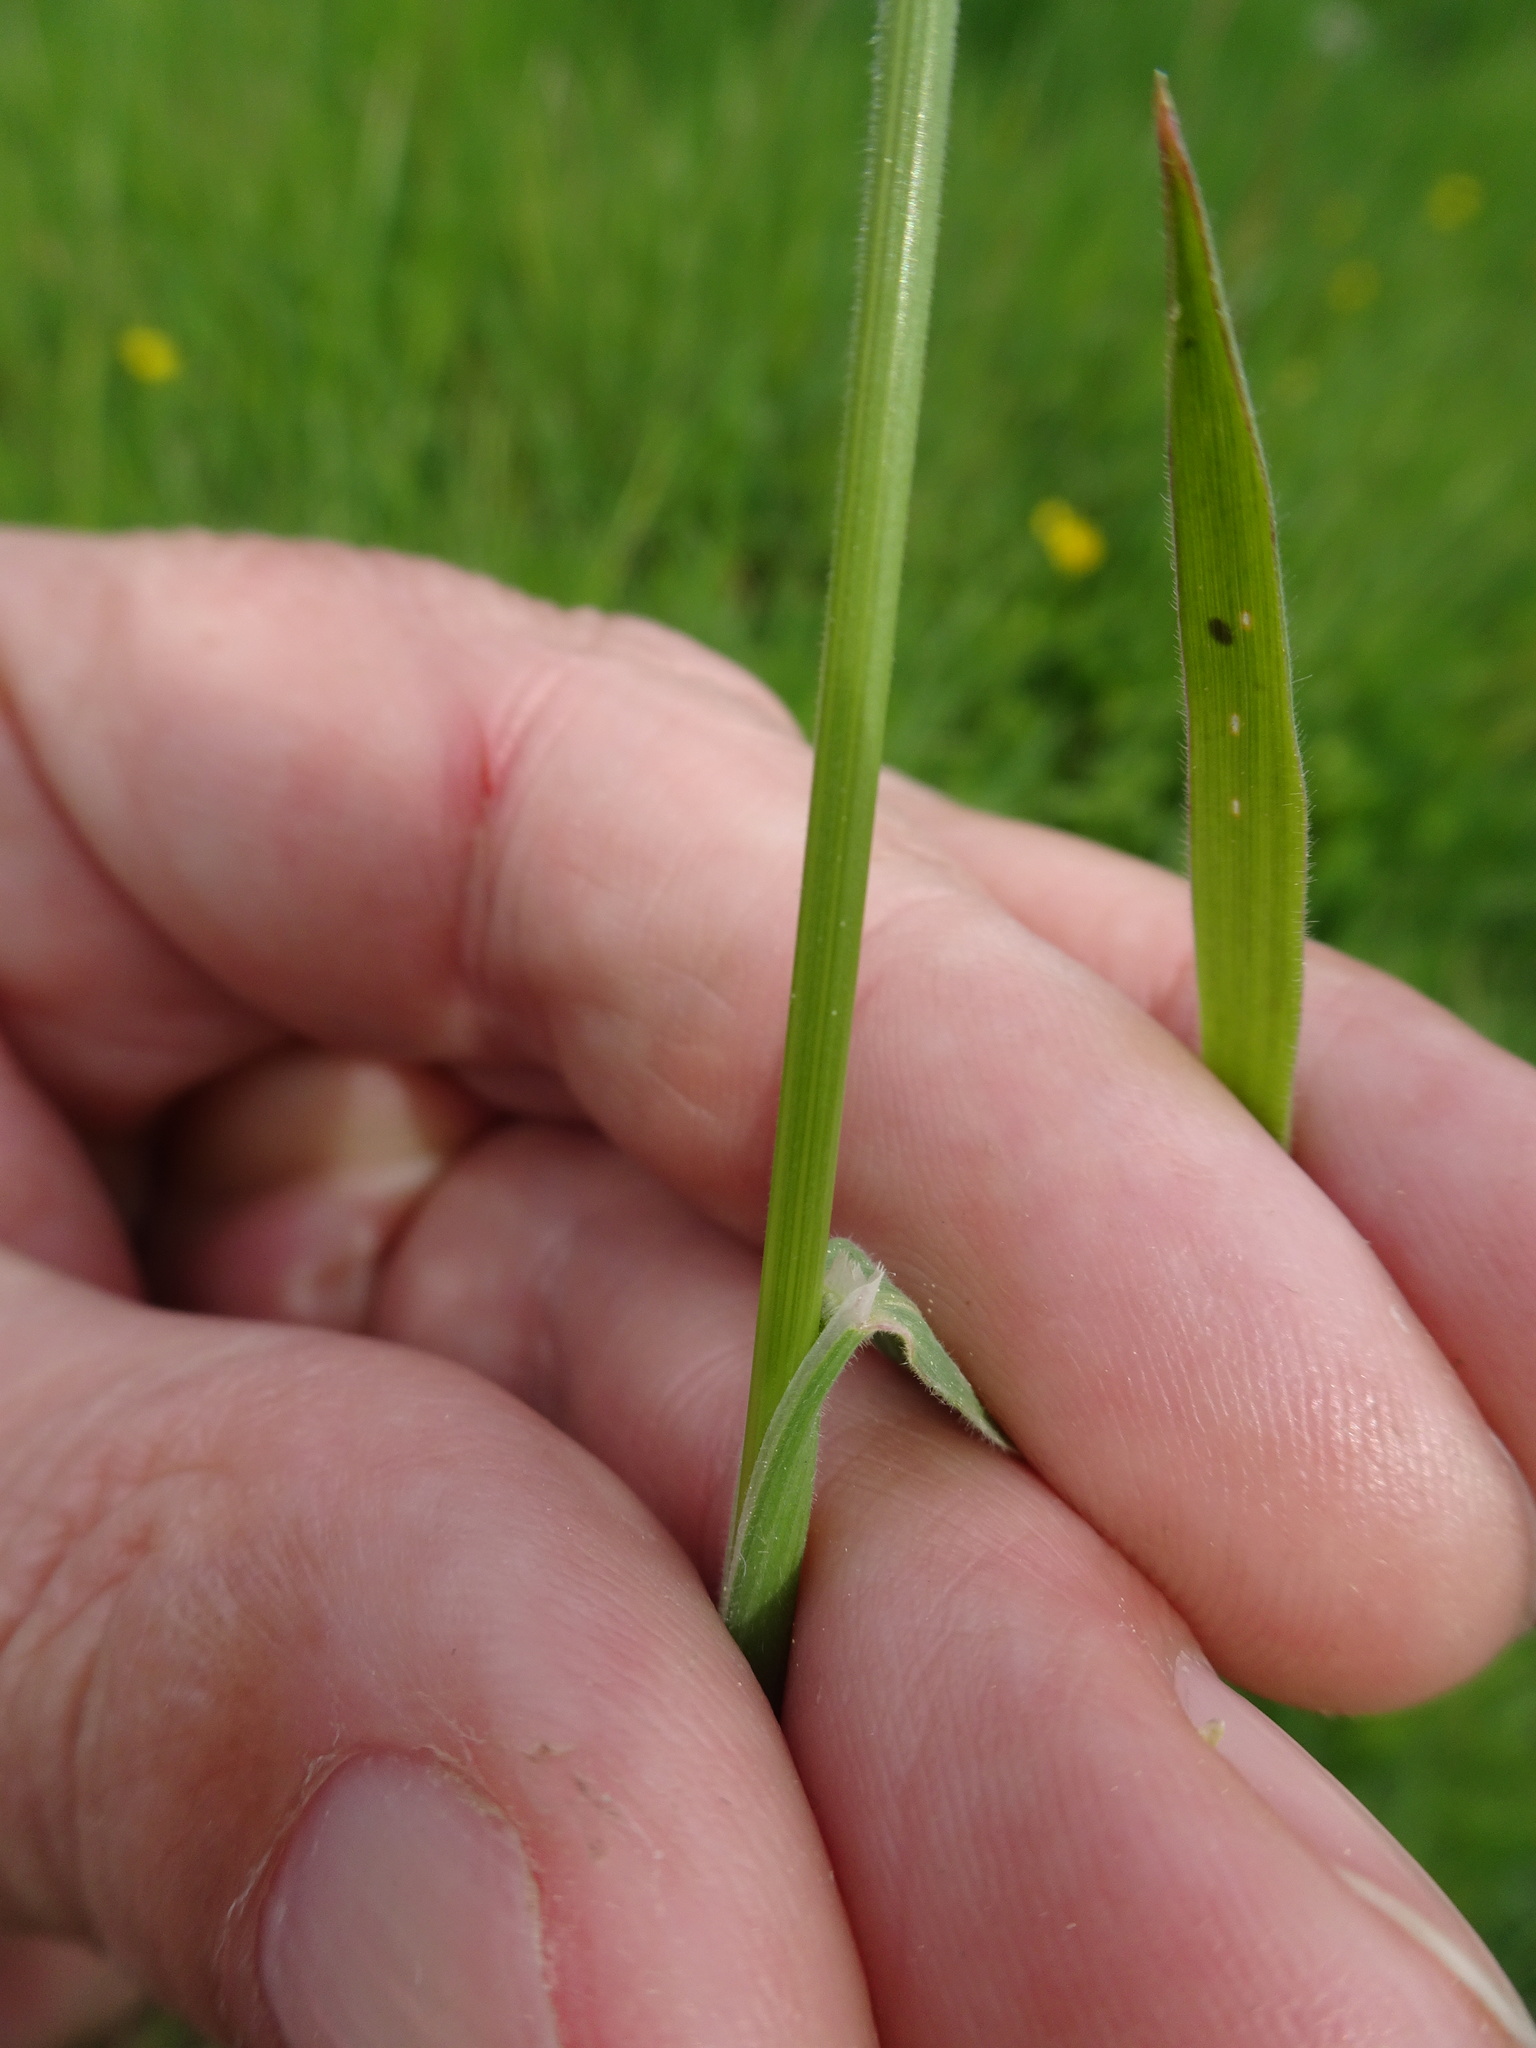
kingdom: Plantae
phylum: Tracheophyta
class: Liliopsida
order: Poales
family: Poaceae
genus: Holcus
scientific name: Holcus lanatus
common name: Yorkshire-fog
